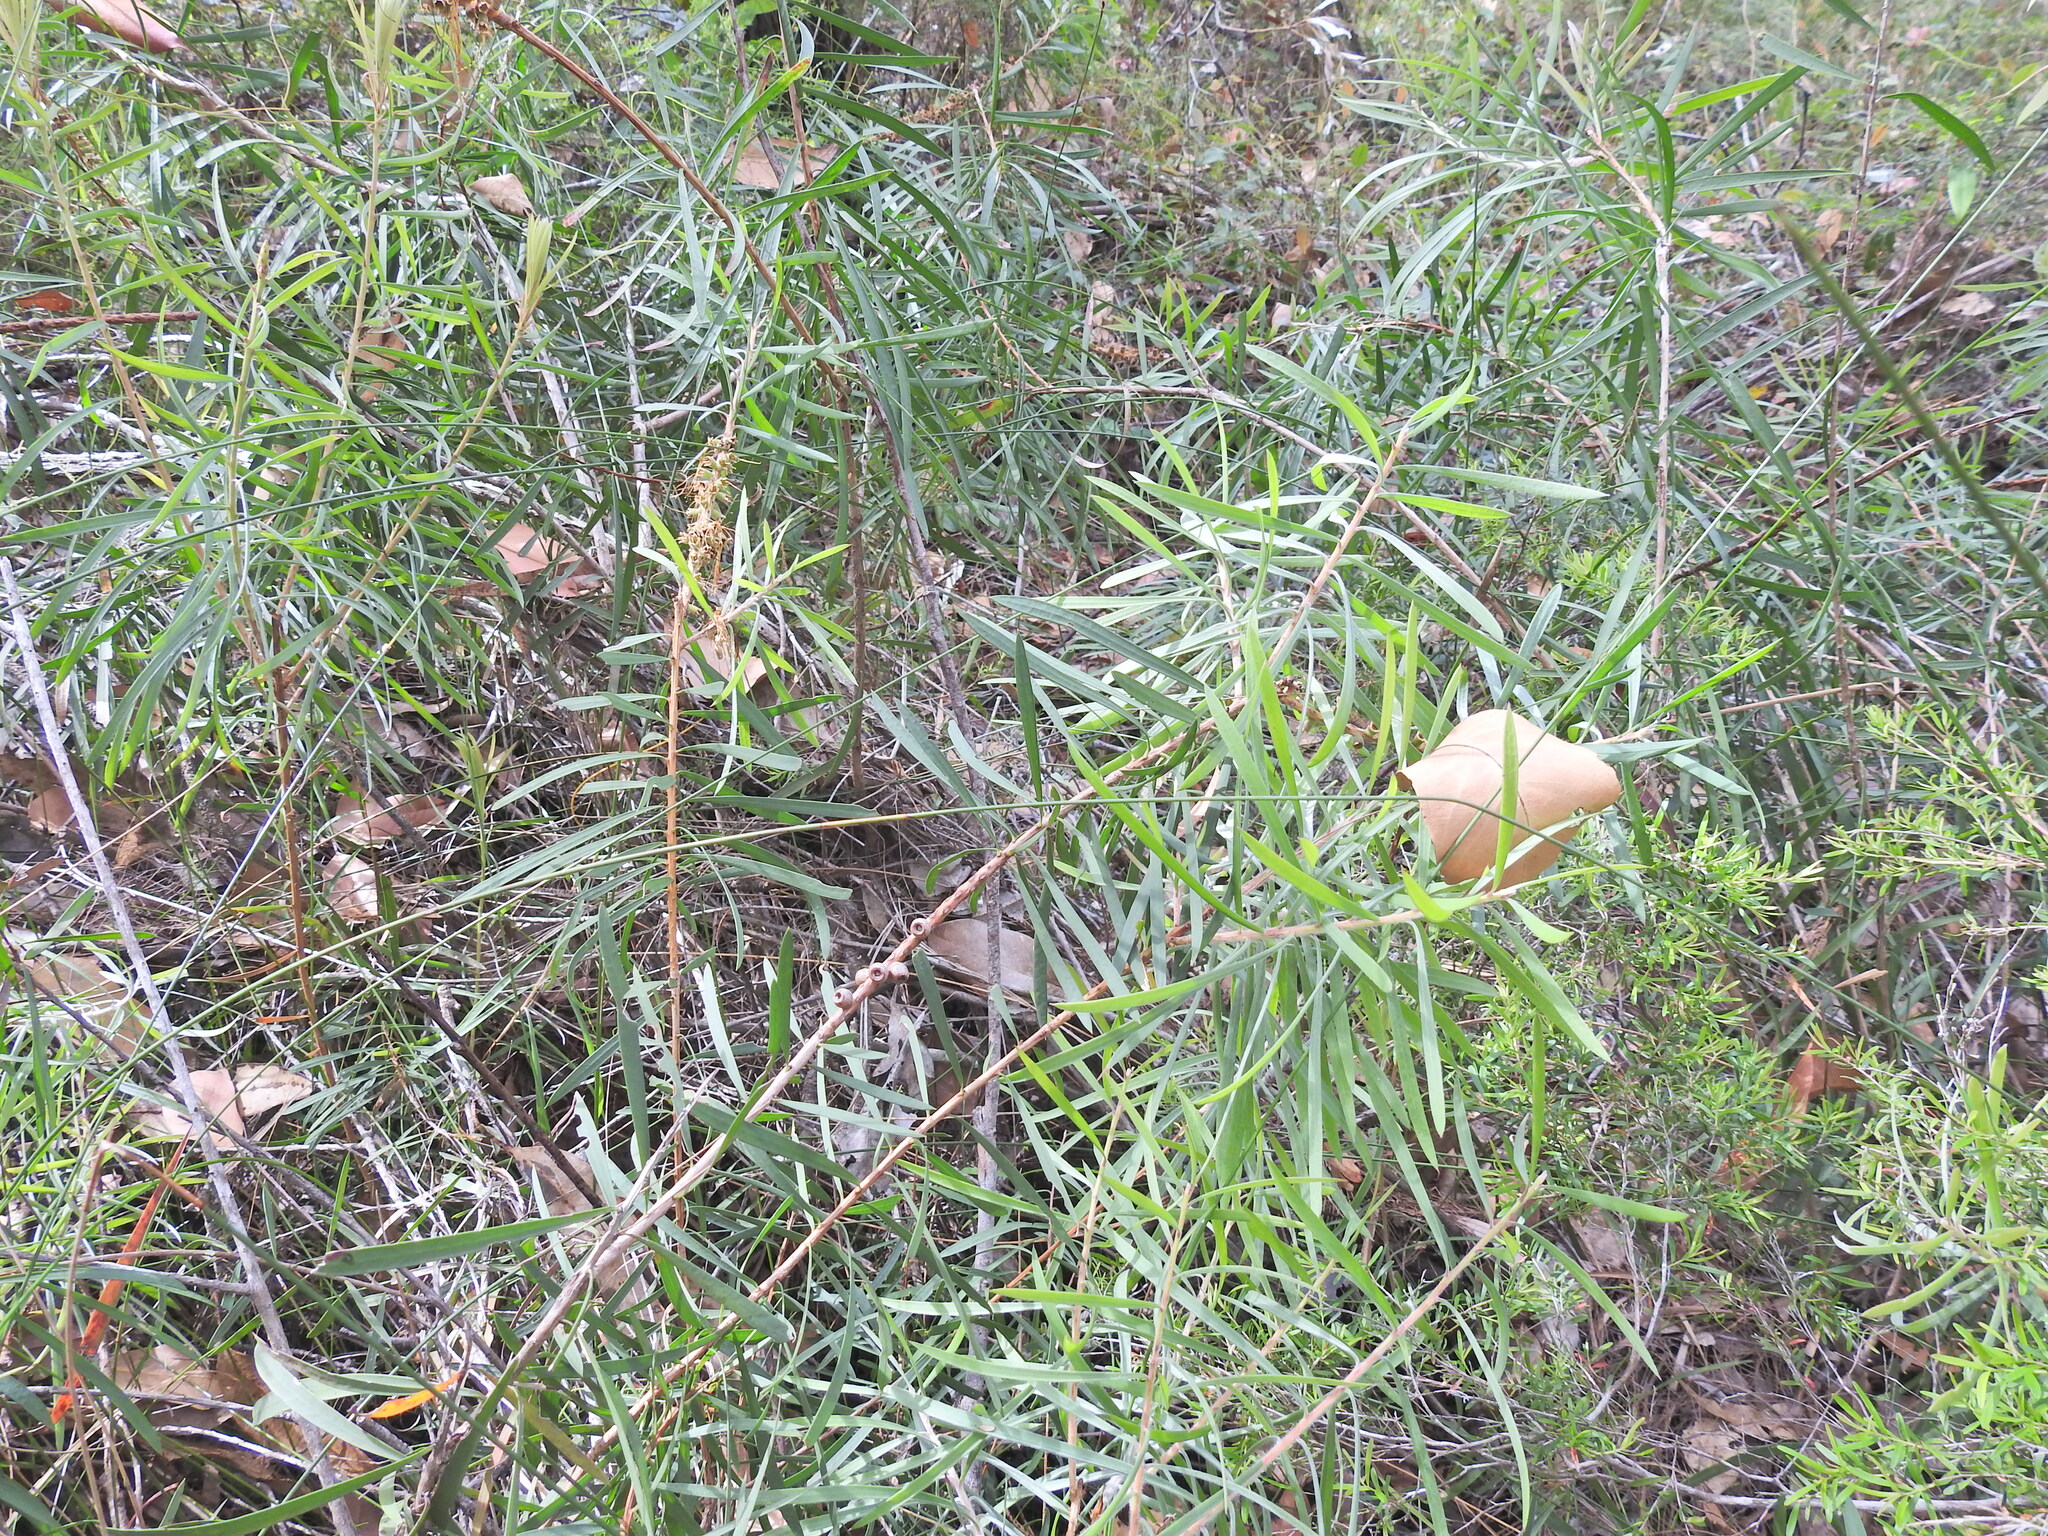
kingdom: Plantae
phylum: Tracheophyta
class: Magnoliopsida
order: Myrtales
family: Myrtaceae
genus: Callistemon
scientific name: Callistemon pachyphyllus
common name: Wallum bottlebrush
